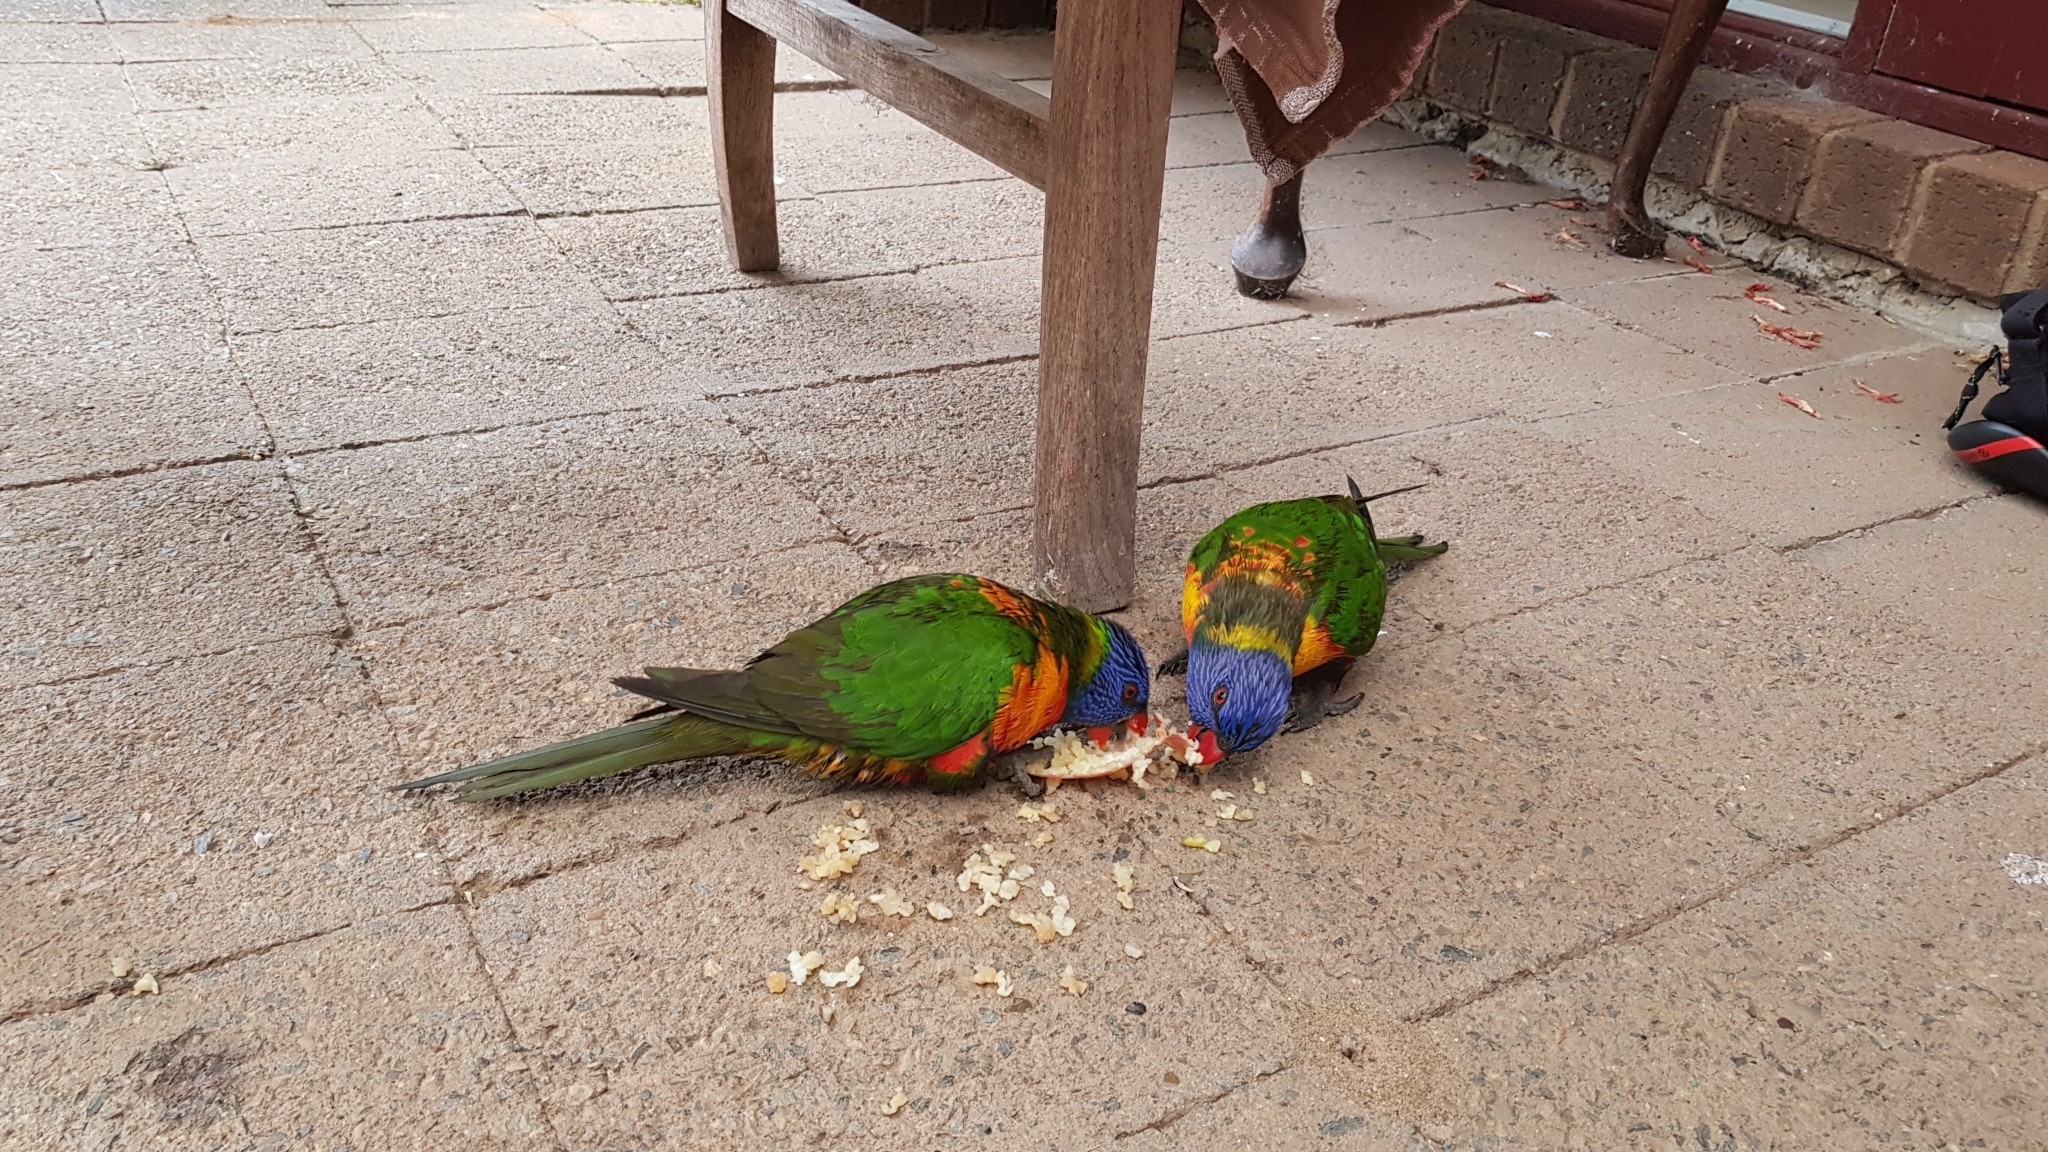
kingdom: Animalia
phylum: Chordata
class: Aves
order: Psittaciformes
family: Psittacidae
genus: Trichoglossus
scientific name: Trichoglossus haematodus
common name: Coconut lorikeet
